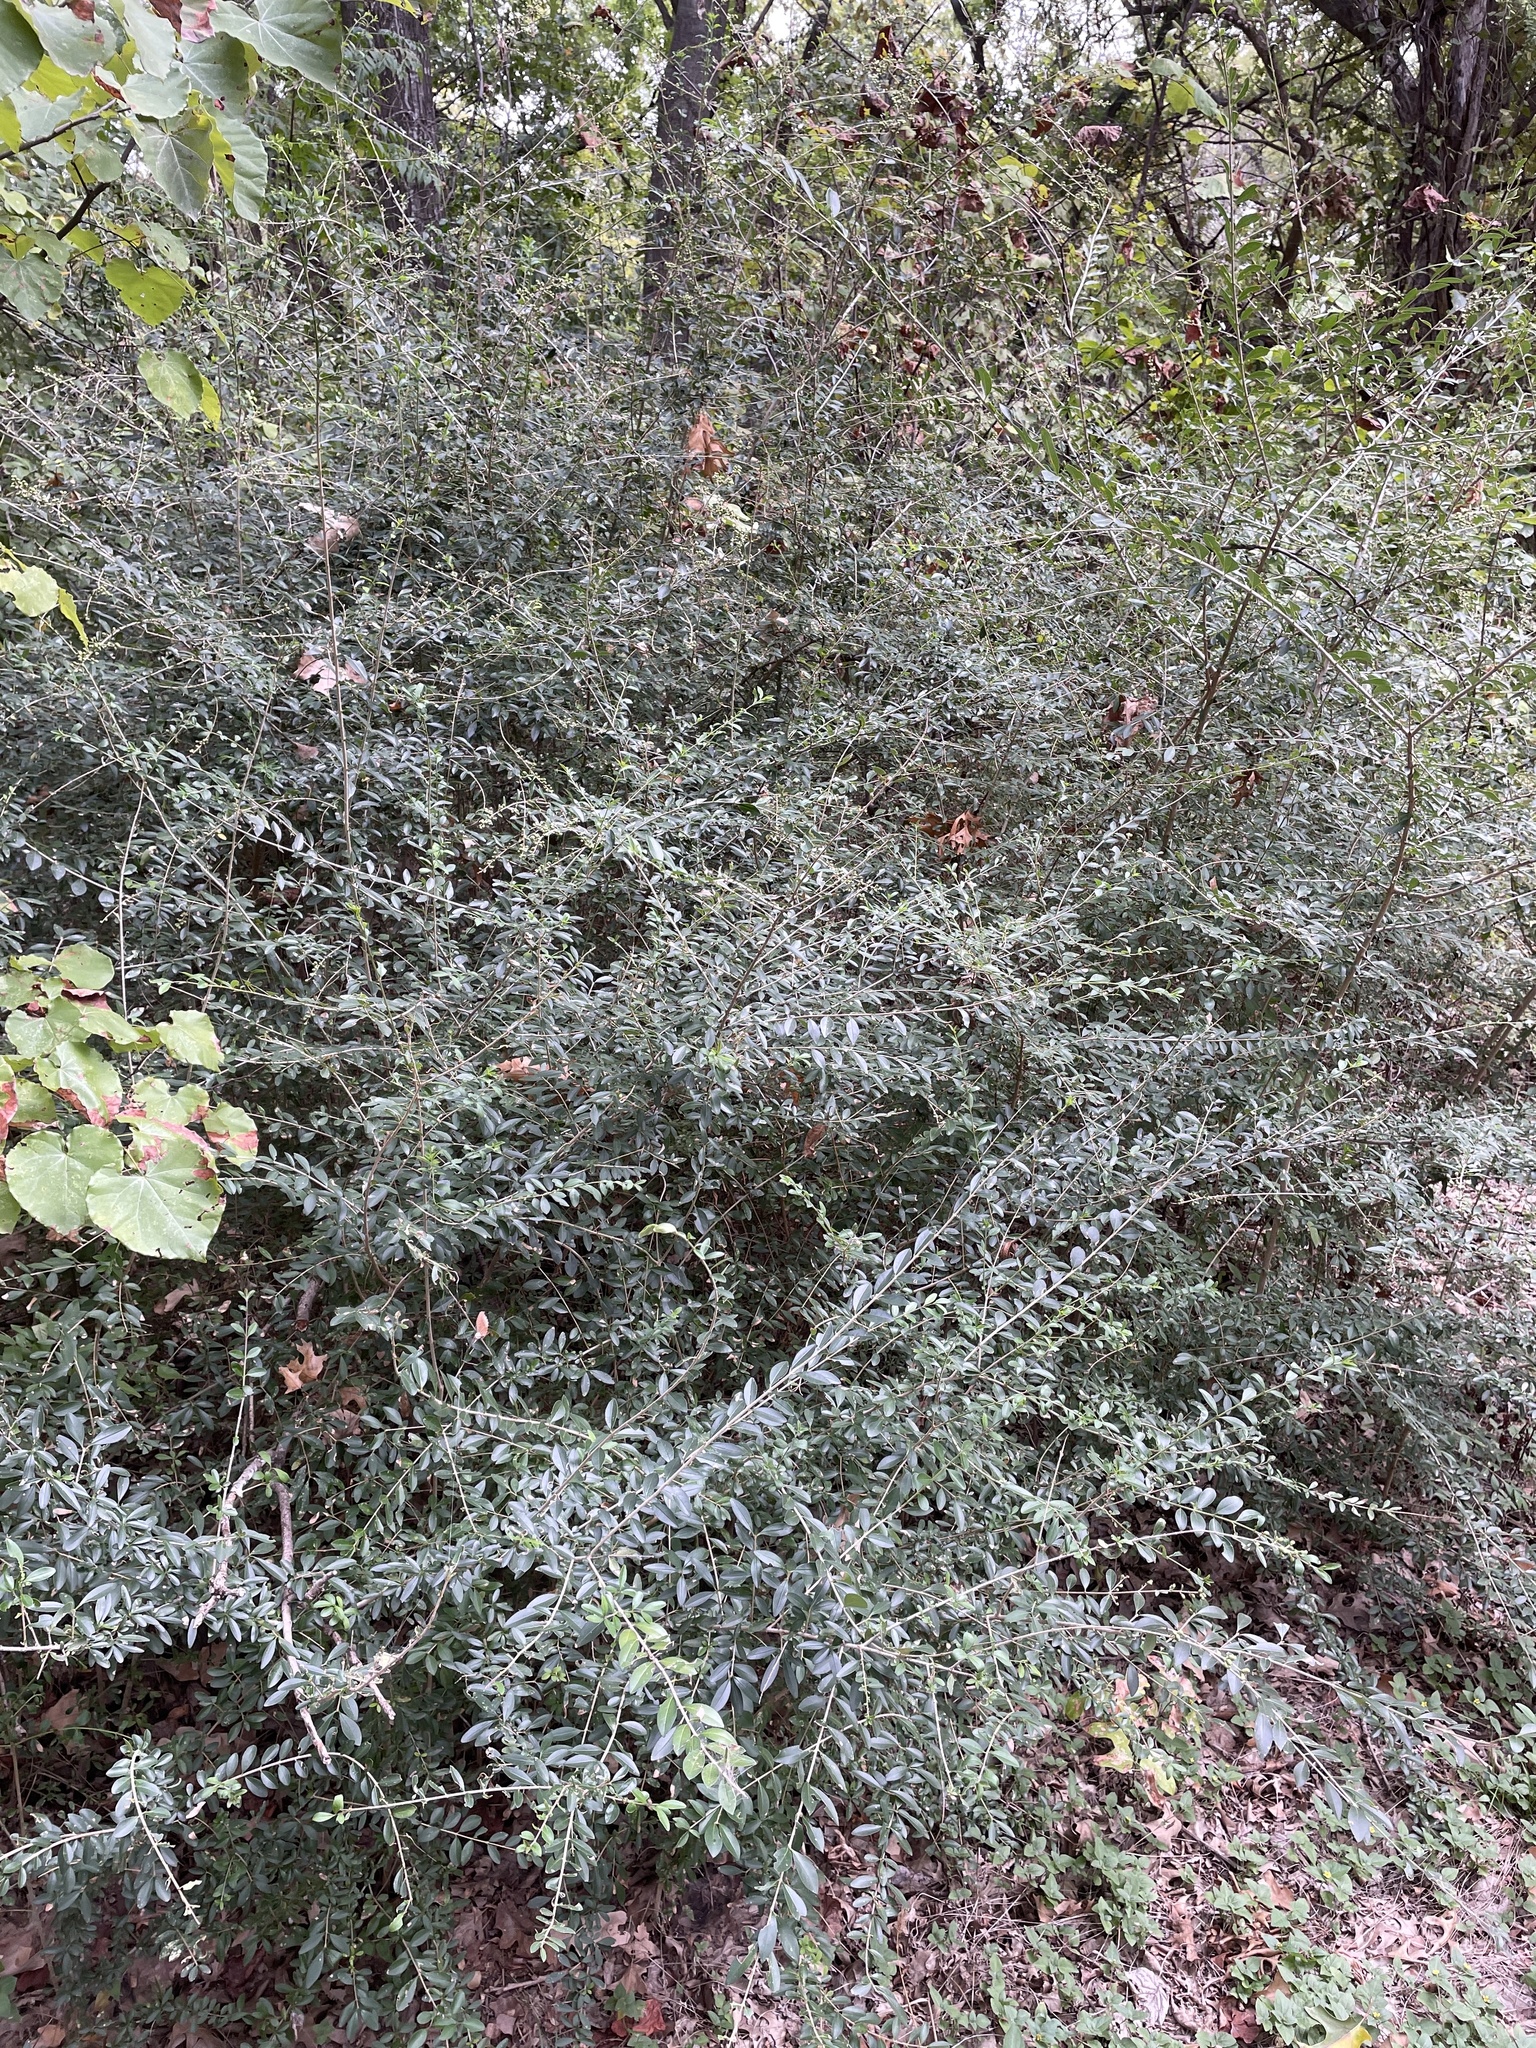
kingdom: Plantae
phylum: Tracheophyta
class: Magnoliopsida
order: Lamiales
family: Oleaceae
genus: Ligustrum
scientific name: Ligustrum quihoui
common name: Waxyleaf privet
